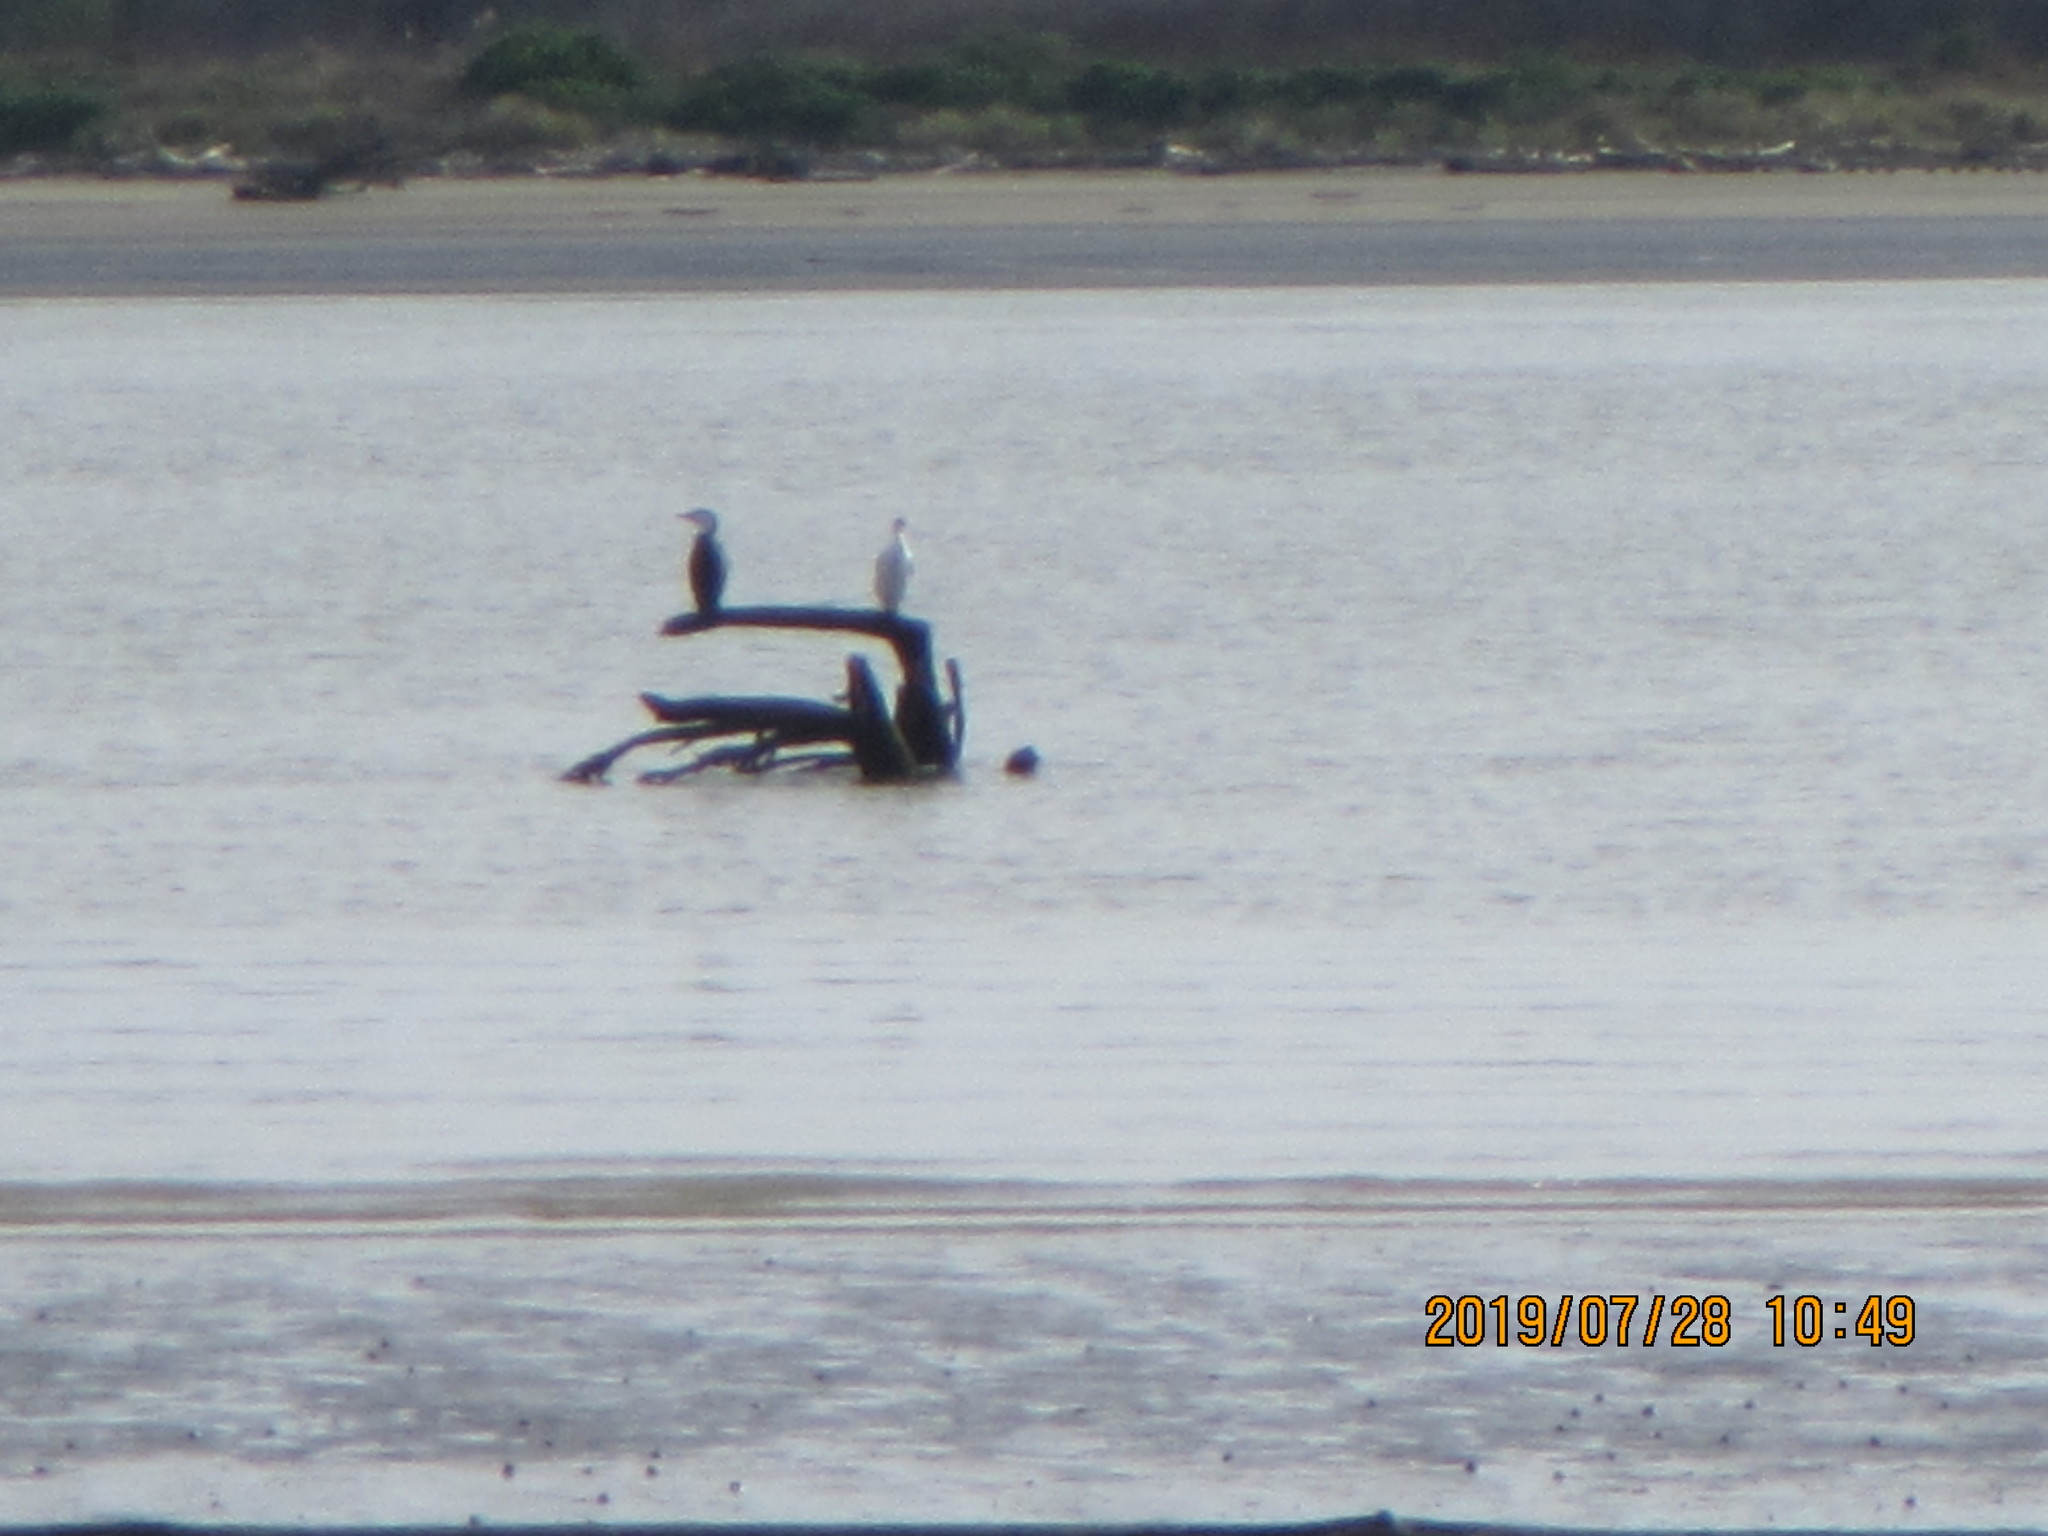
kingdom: Animalia
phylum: Chordata
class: Aves
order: Suliformes
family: Phalacrocoracidae
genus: Phalacrocorax
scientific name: Phalacrocorax varius
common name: Pied cormorant
